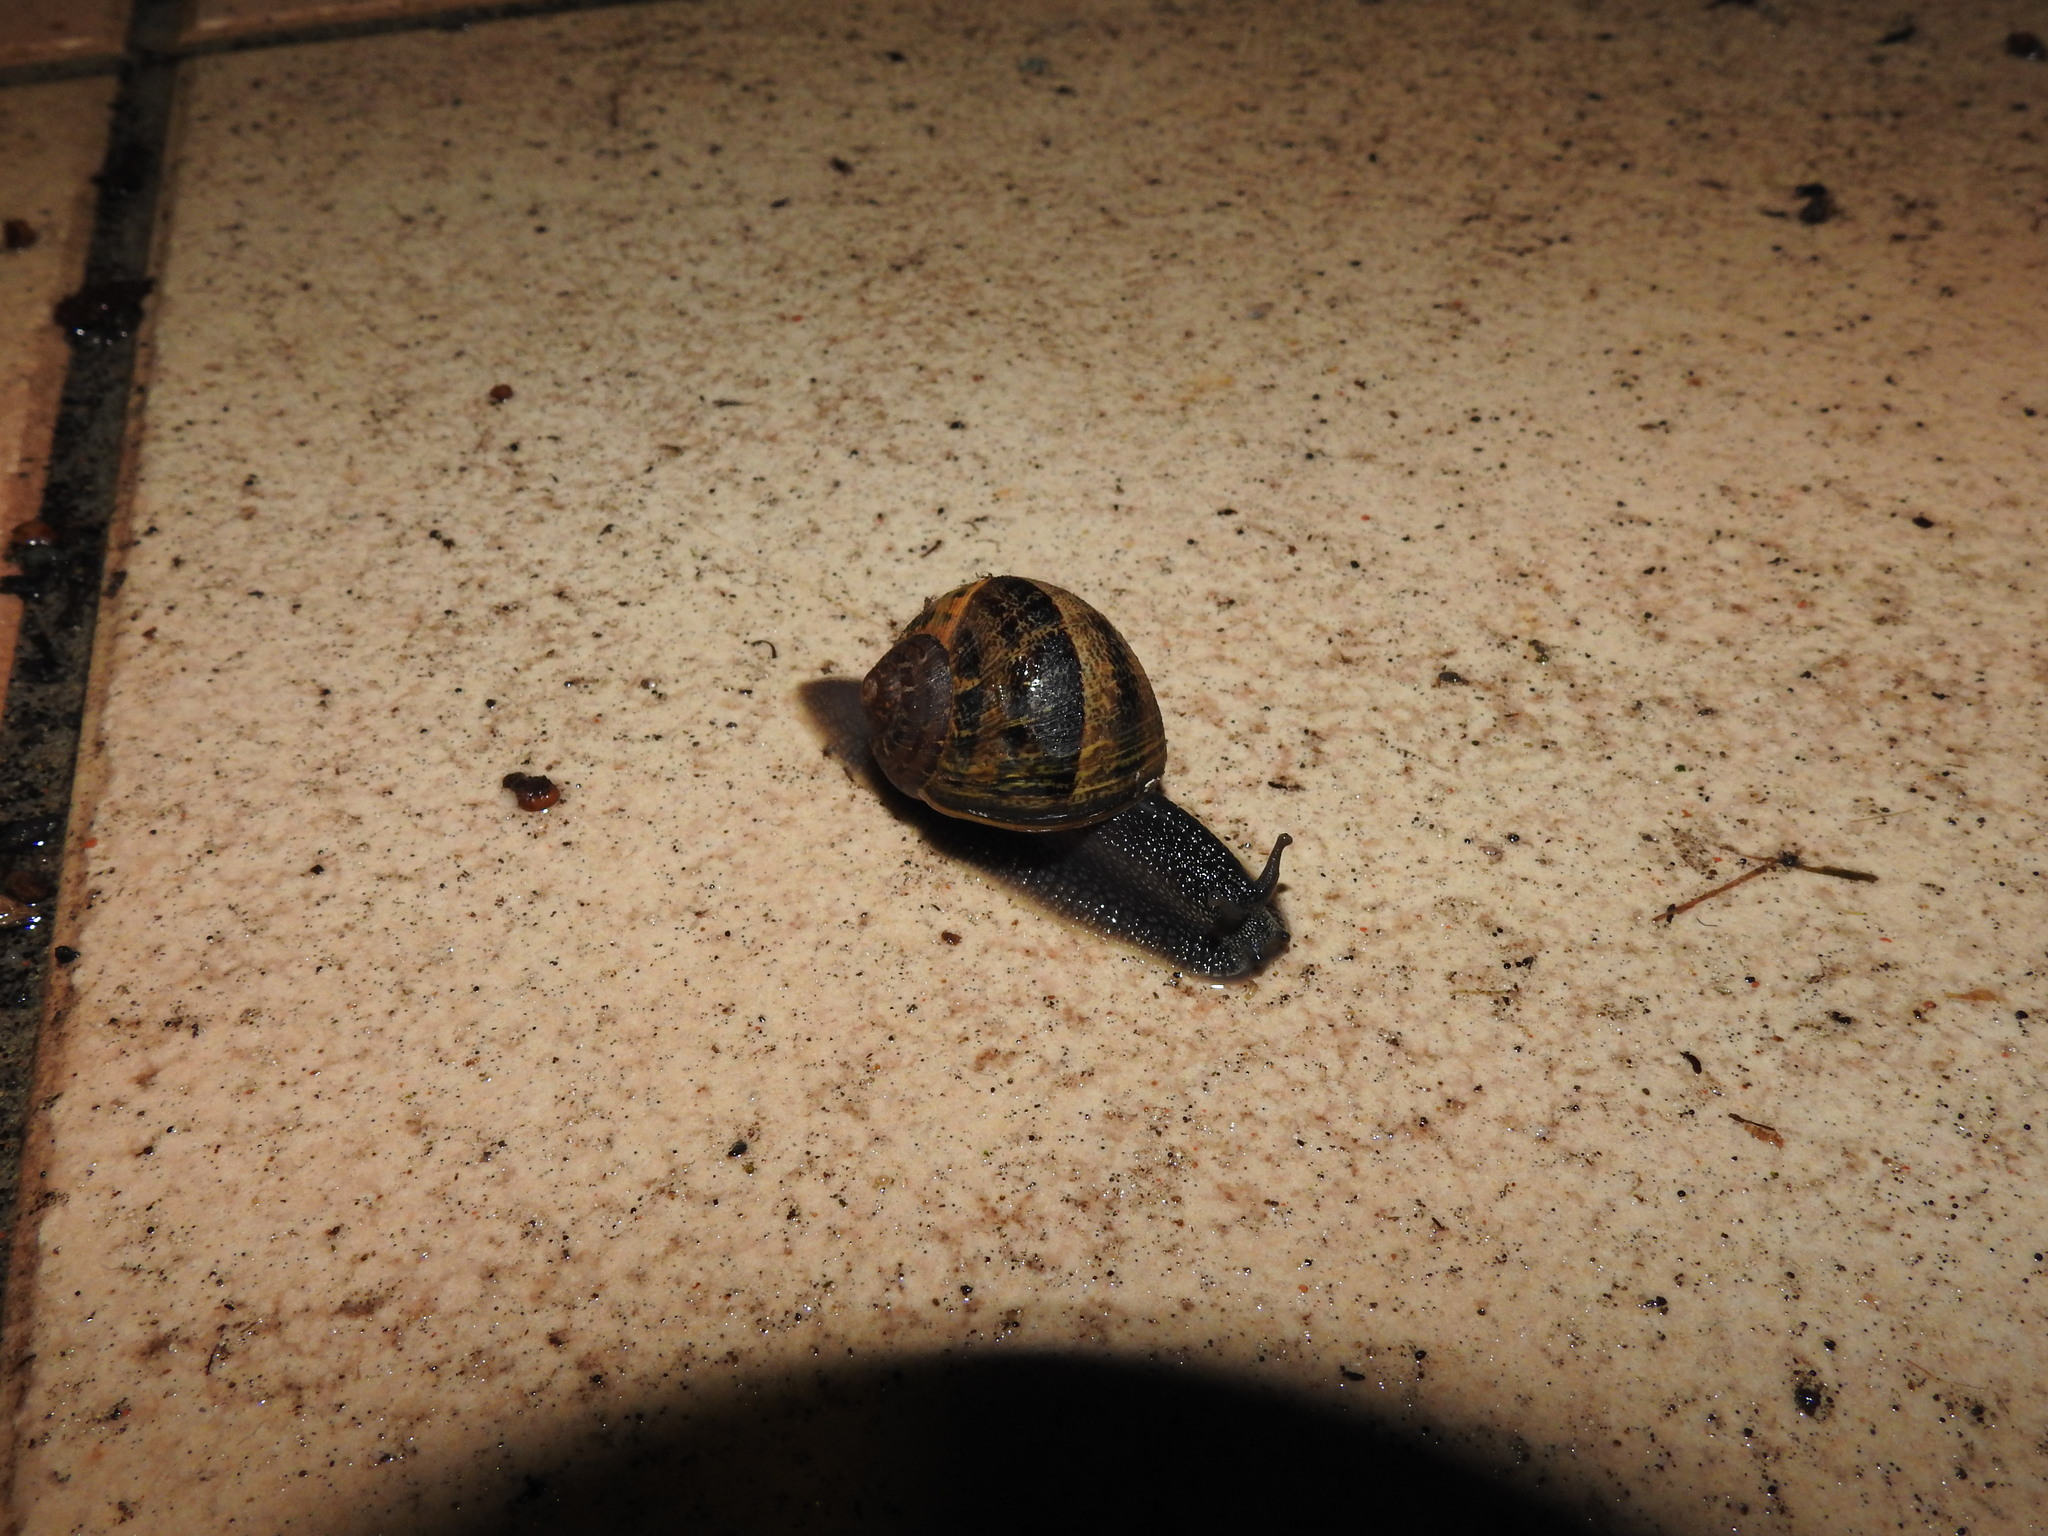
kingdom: Animalia
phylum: Mollusca
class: Gastropoda
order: Stylommatophora
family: Helicidae
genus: Cornu
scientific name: Cornu aspersum
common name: Brown garden snail
